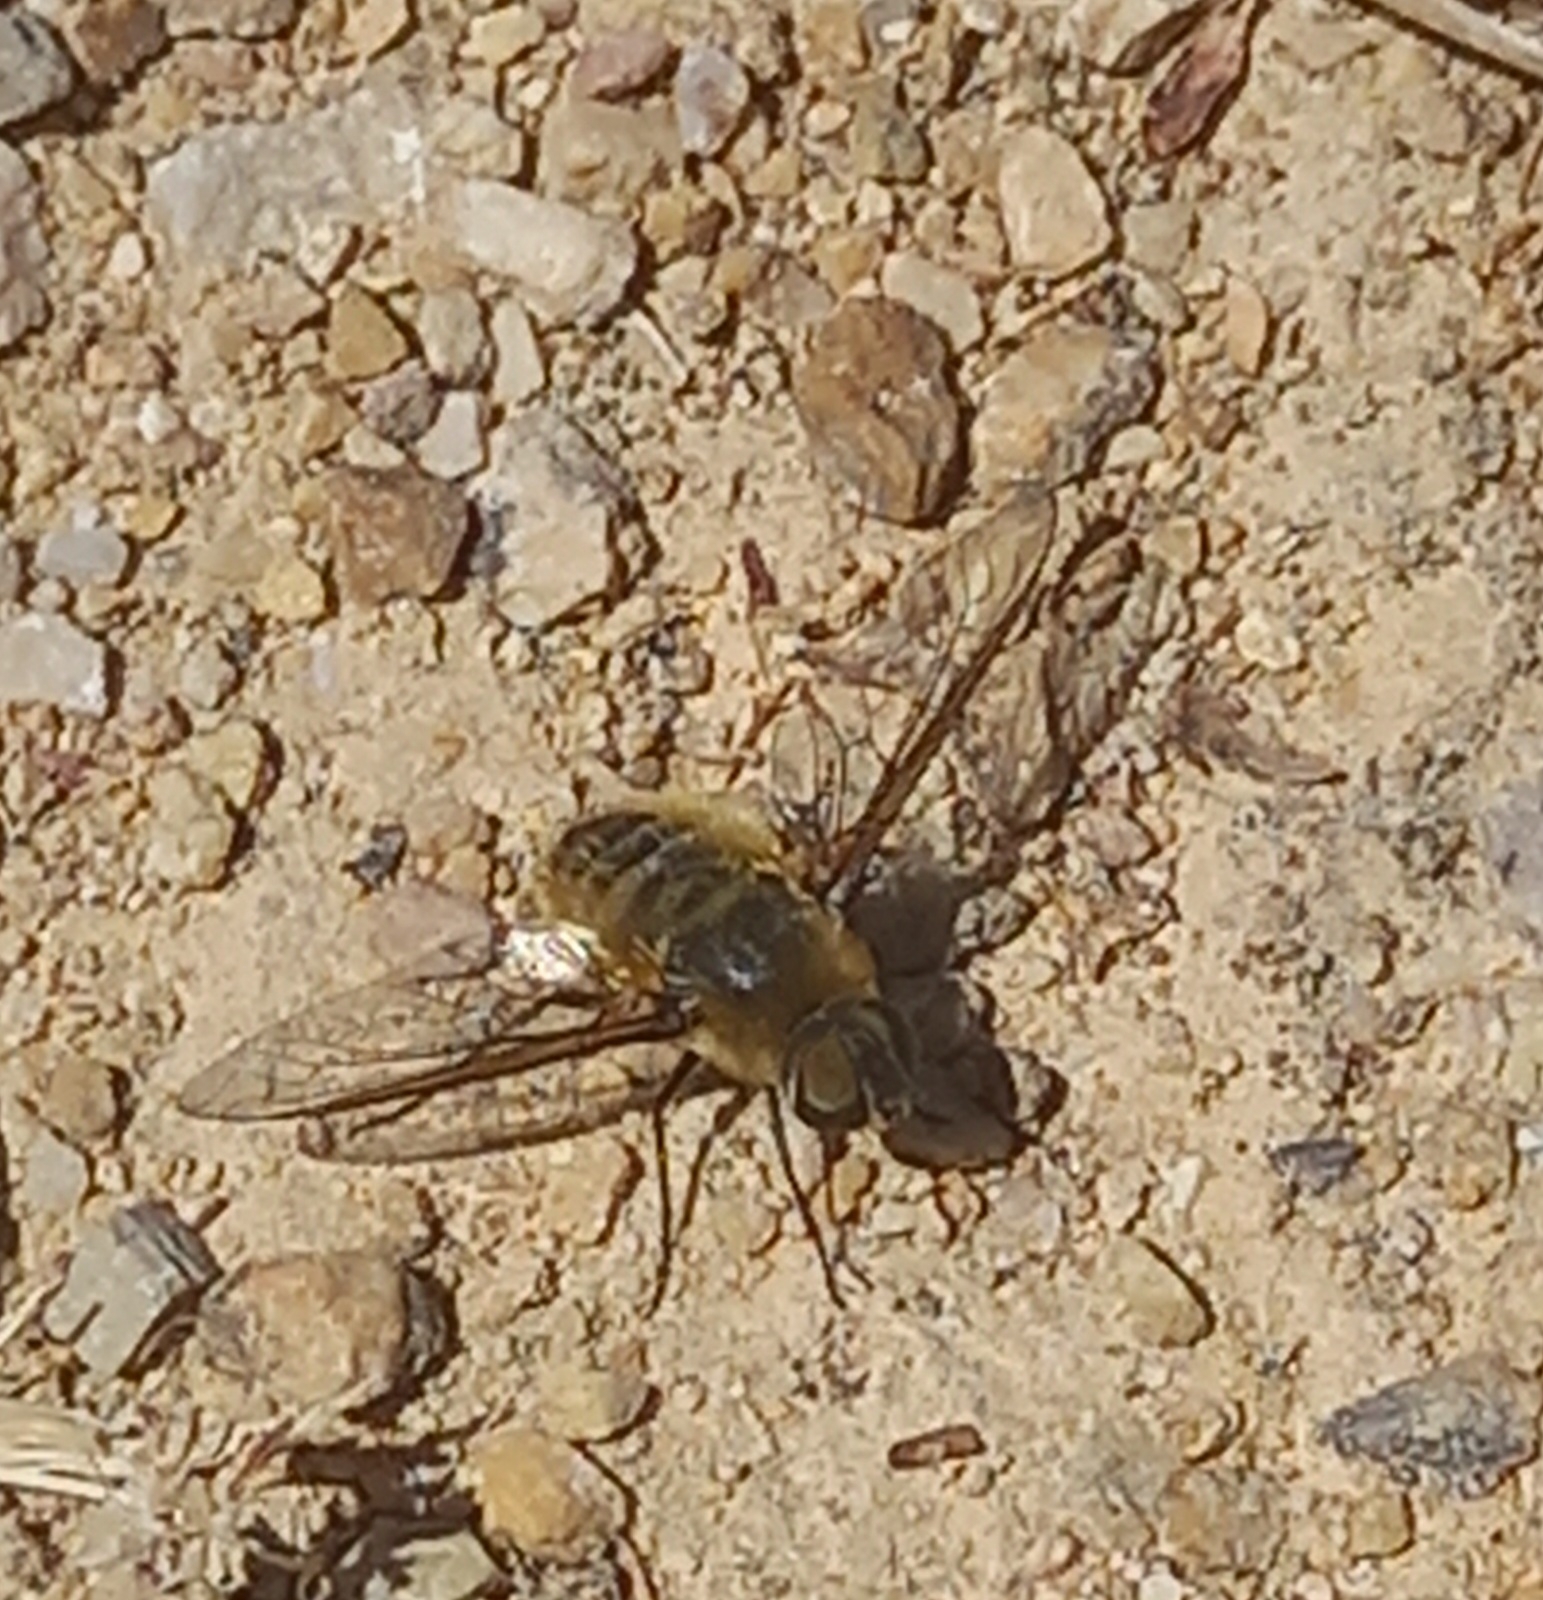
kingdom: Animalia
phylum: Arthropoda
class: Insecta
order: Diptera
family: Bombyliidae
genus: Villa
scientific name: Villa hottentotta
